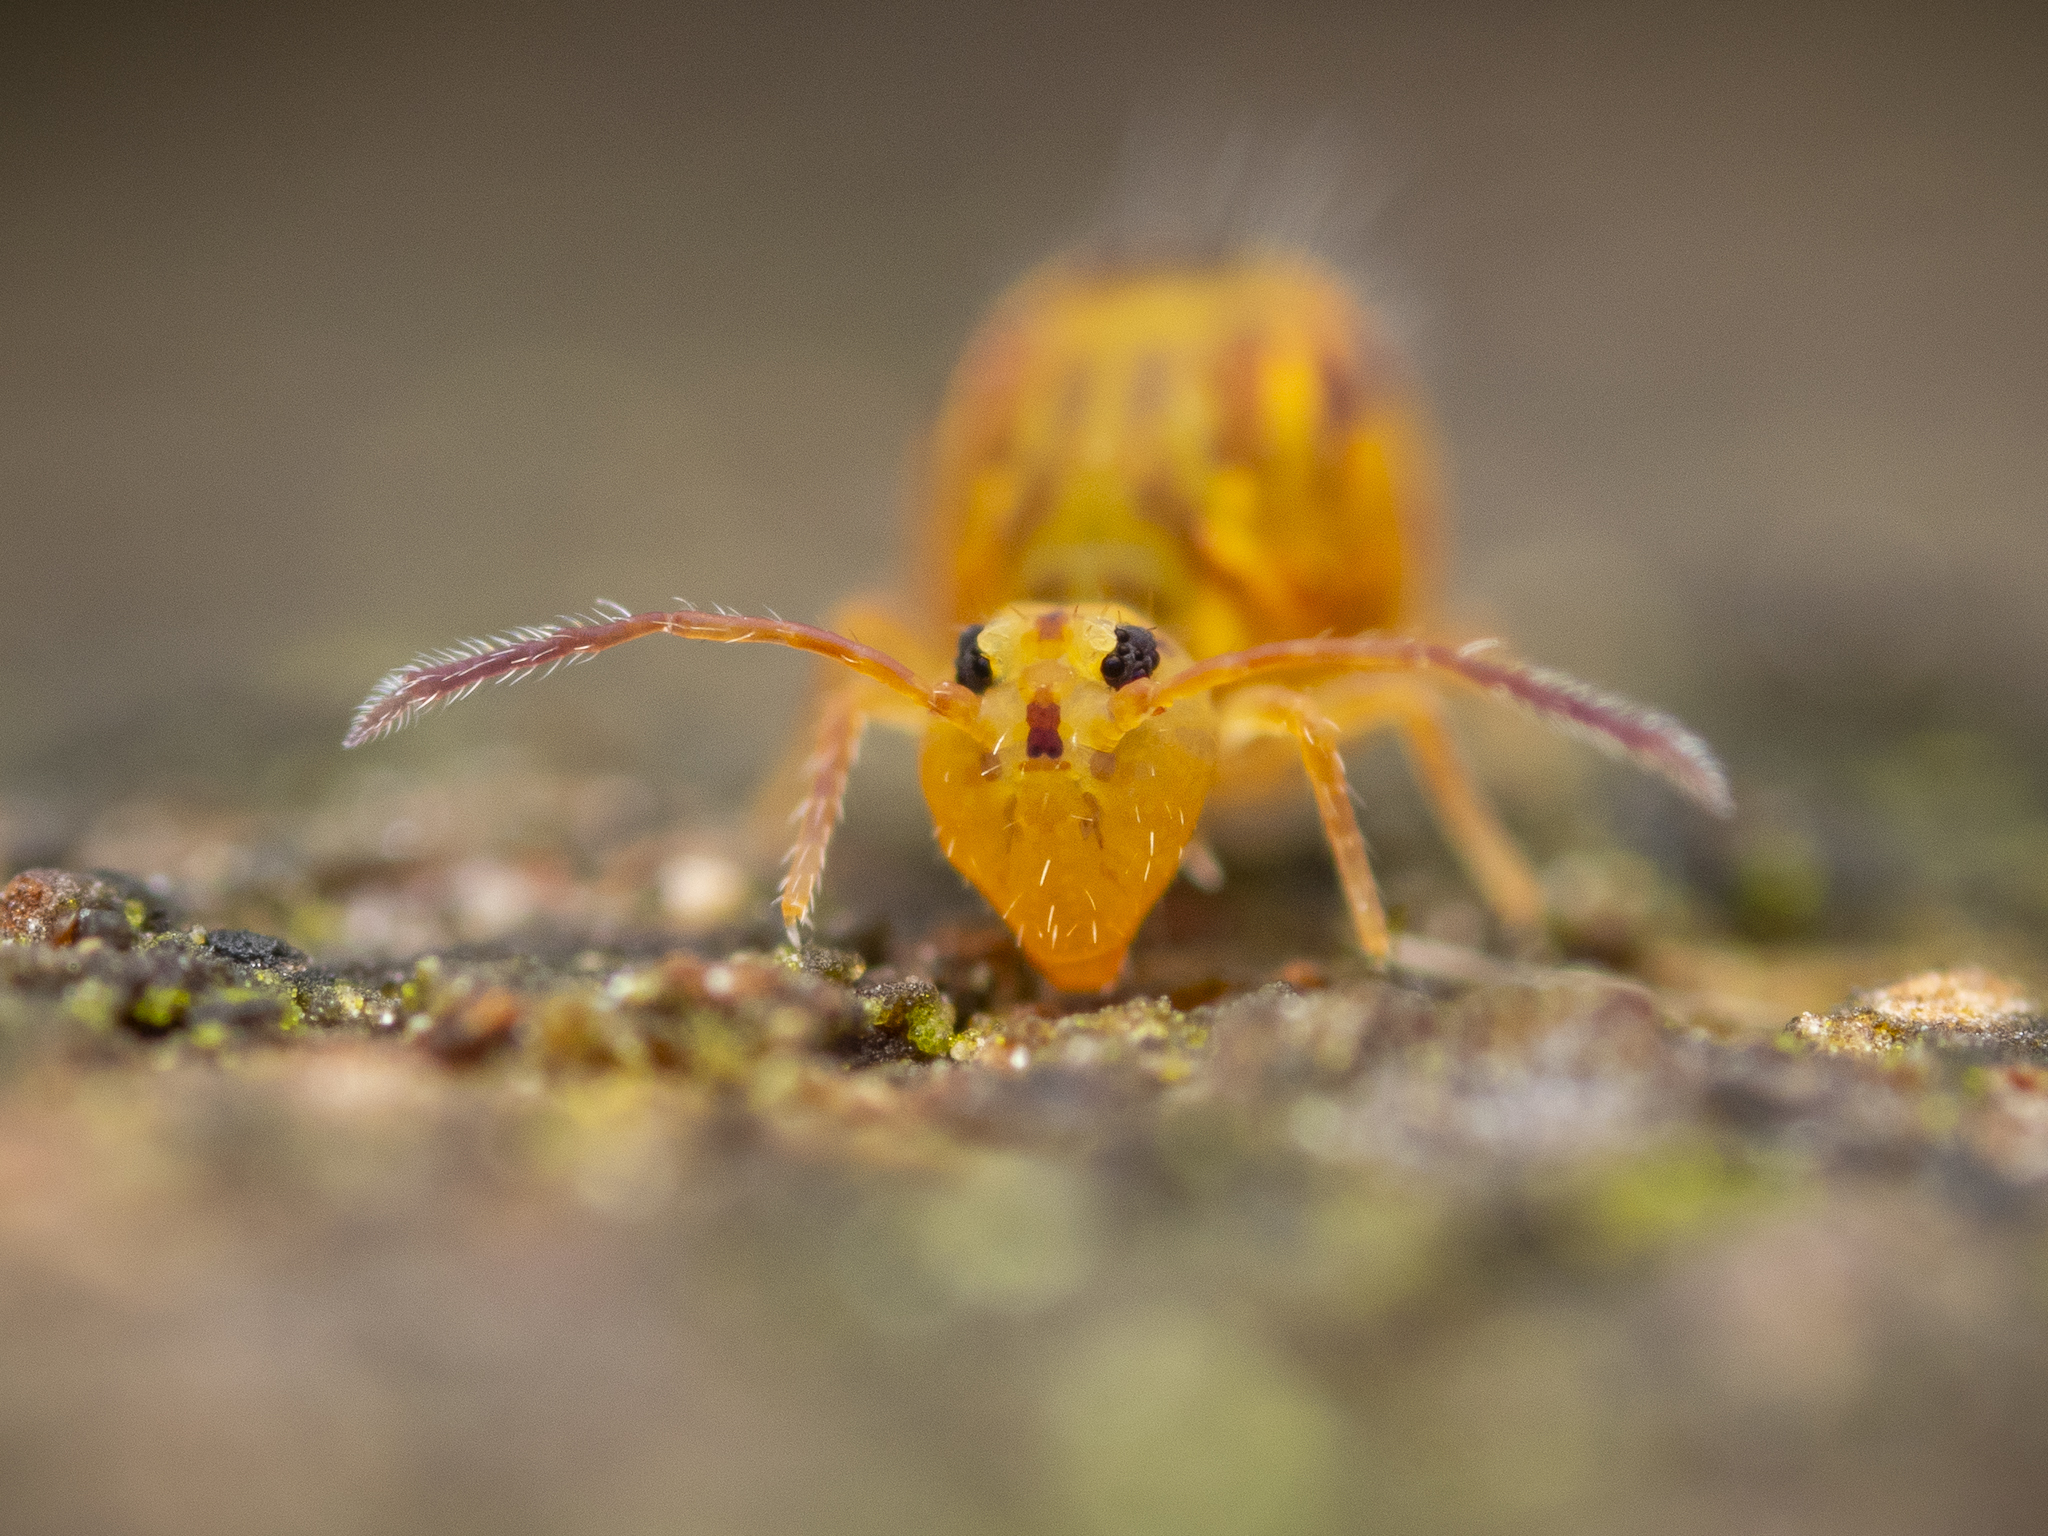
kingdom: Animalia
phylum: Arthropoda
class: Collembola
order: Symphypleona
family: Dicyrtomidae
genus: Dicyrtomina
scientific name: Dicyrtomina ornata
